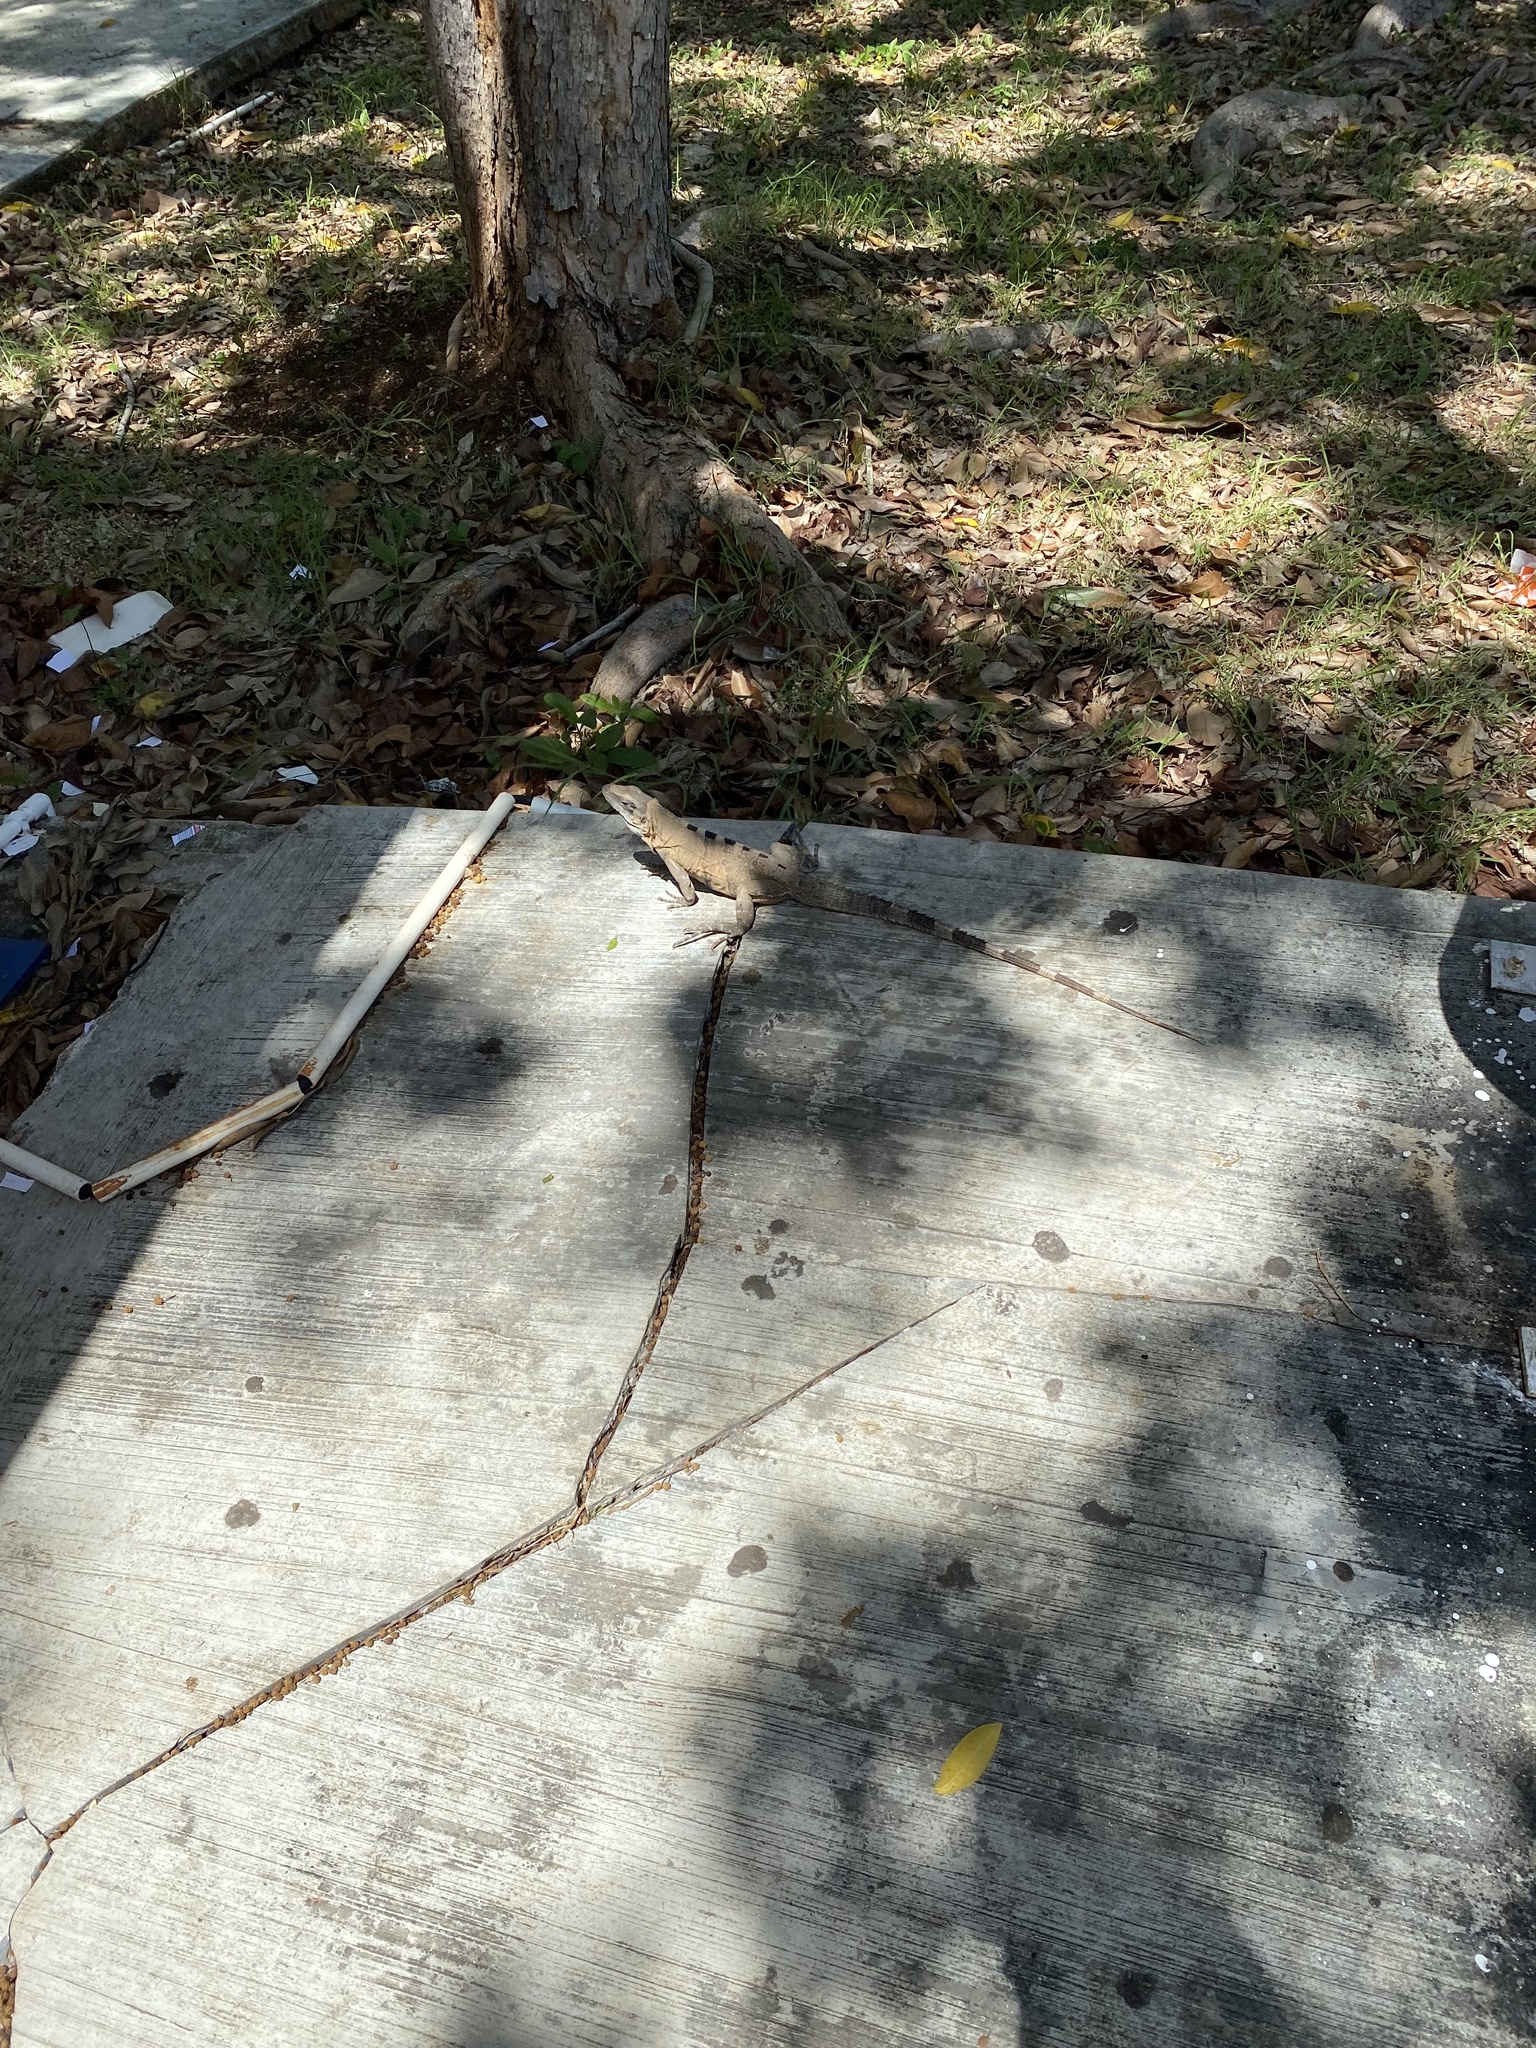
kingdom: Animalia
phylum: Chordata
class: Squamata
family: Iguanidae
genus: Ctenosaura
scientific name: Ctenosaura similis
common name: Black spiny-tailed iguana
